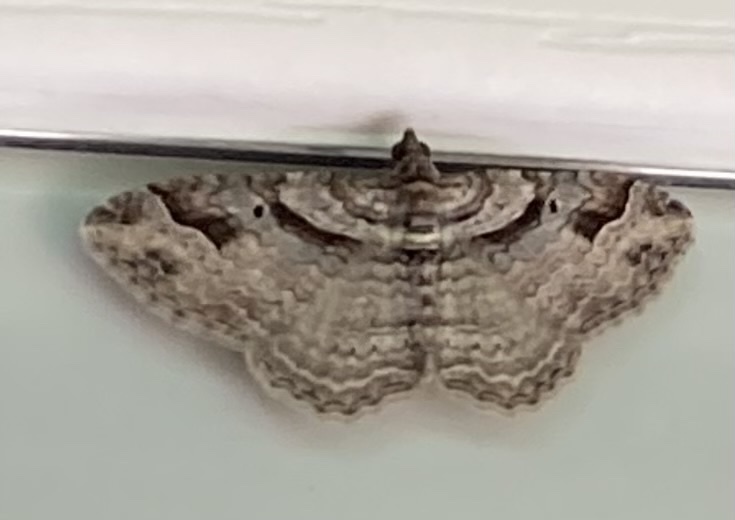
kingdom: Animalia
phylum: Arthropoda
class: Insecta
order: Lepidoptera
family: Geometridae
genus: Costaconvexa
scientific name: Costaconvexa centrostrigaria
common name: Bent-line carpet
